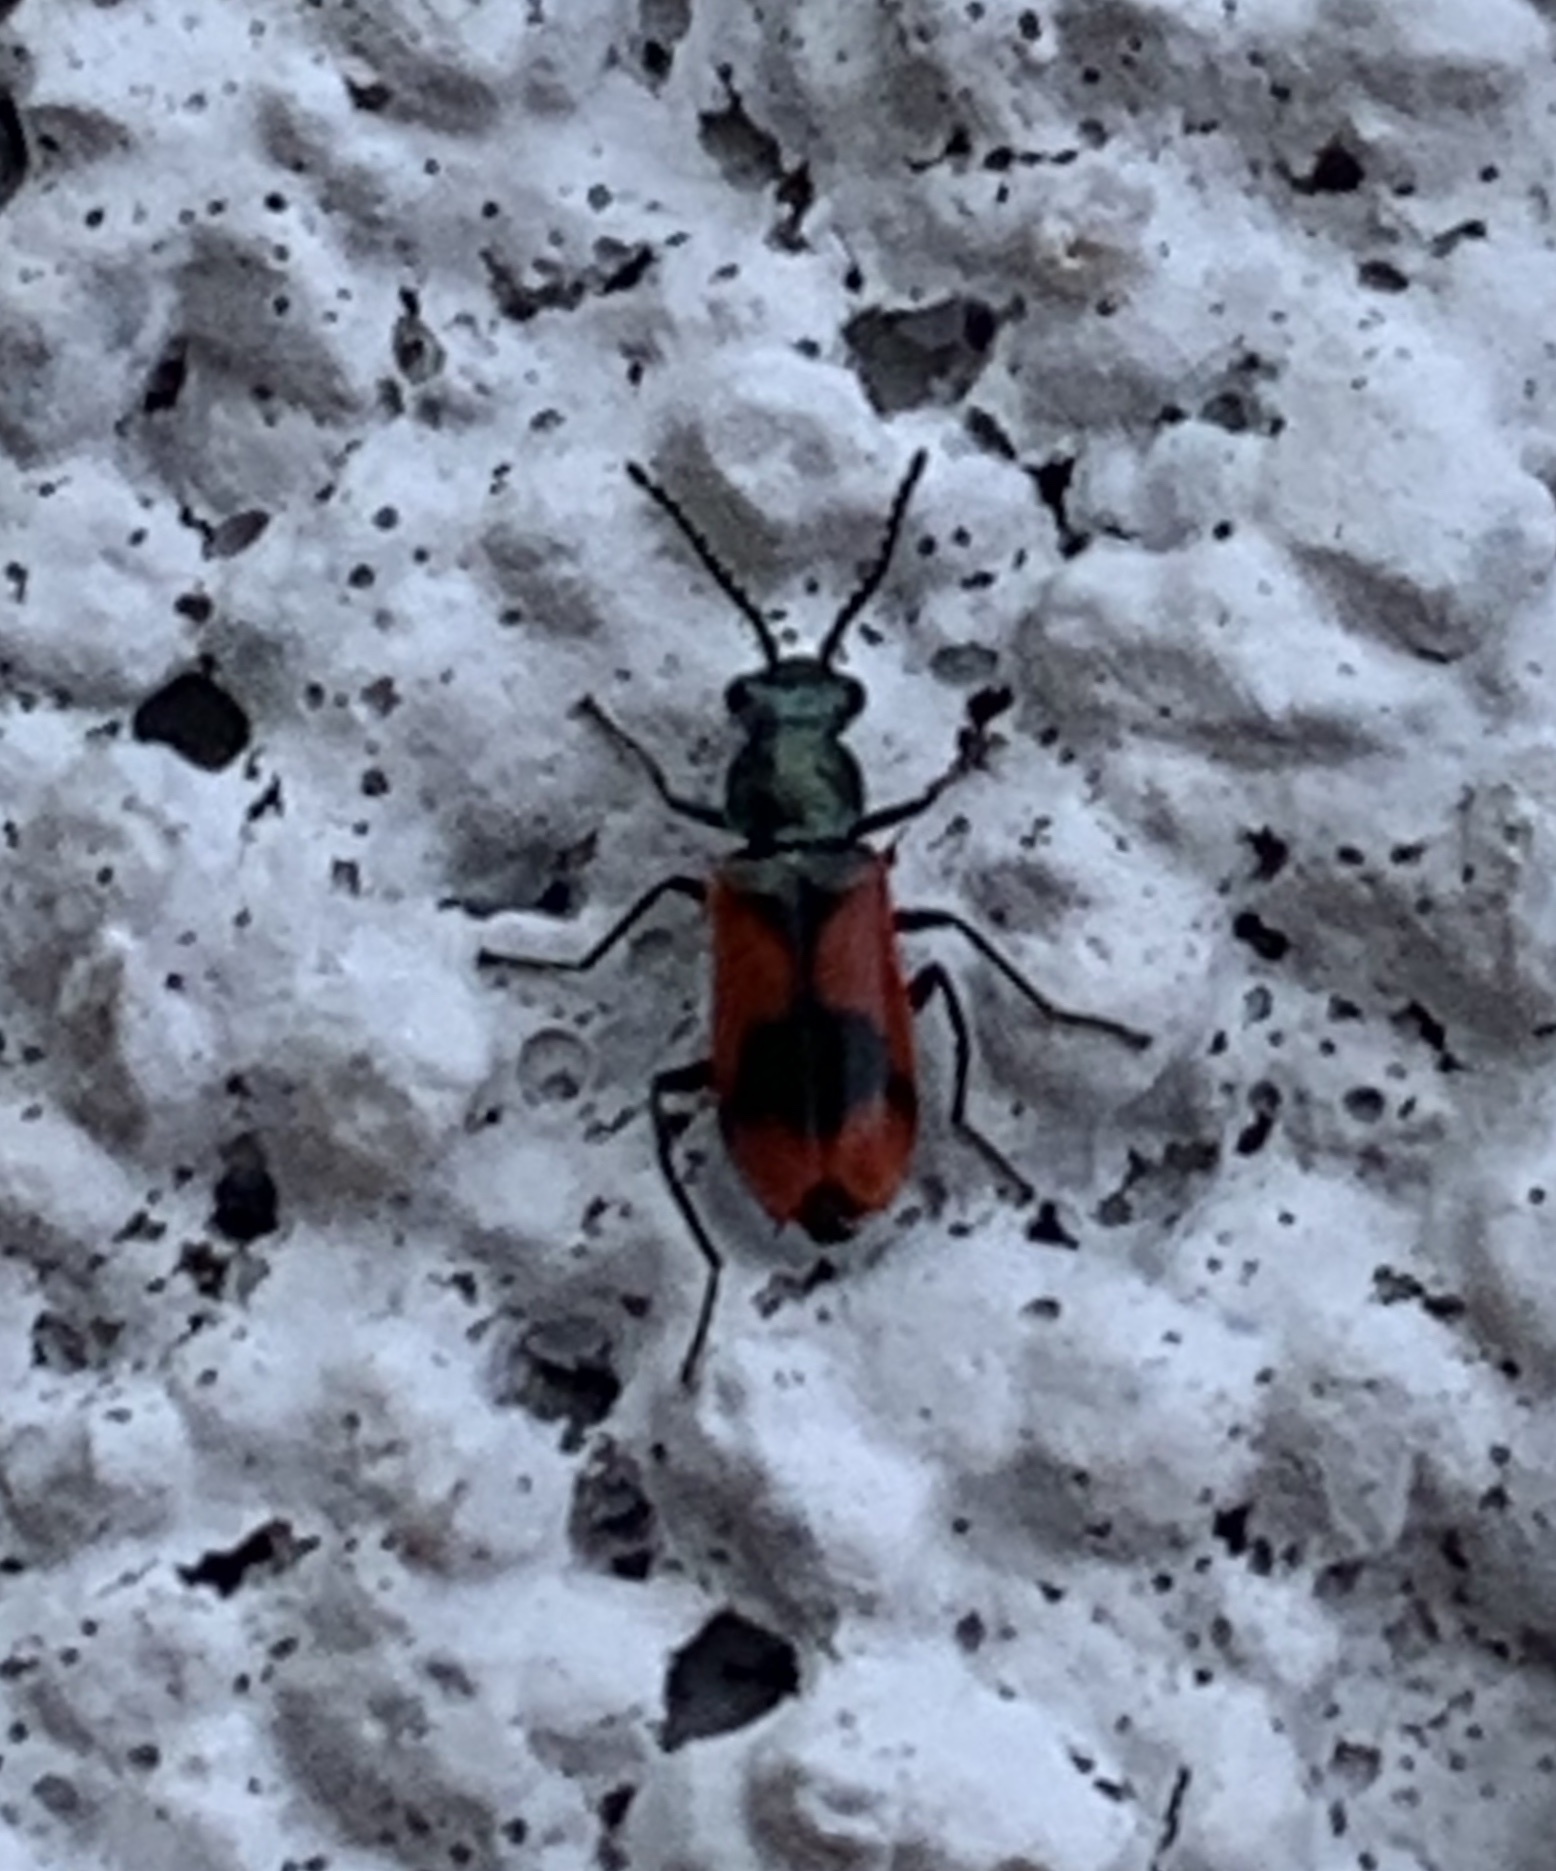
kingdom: Animalia
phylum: Arthropoda
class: Insecta
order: Coleoptera
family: Melyridae
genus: Anthocomus
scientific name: Anthocomus equestris
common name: Black-banded soft-winged flower beetle
